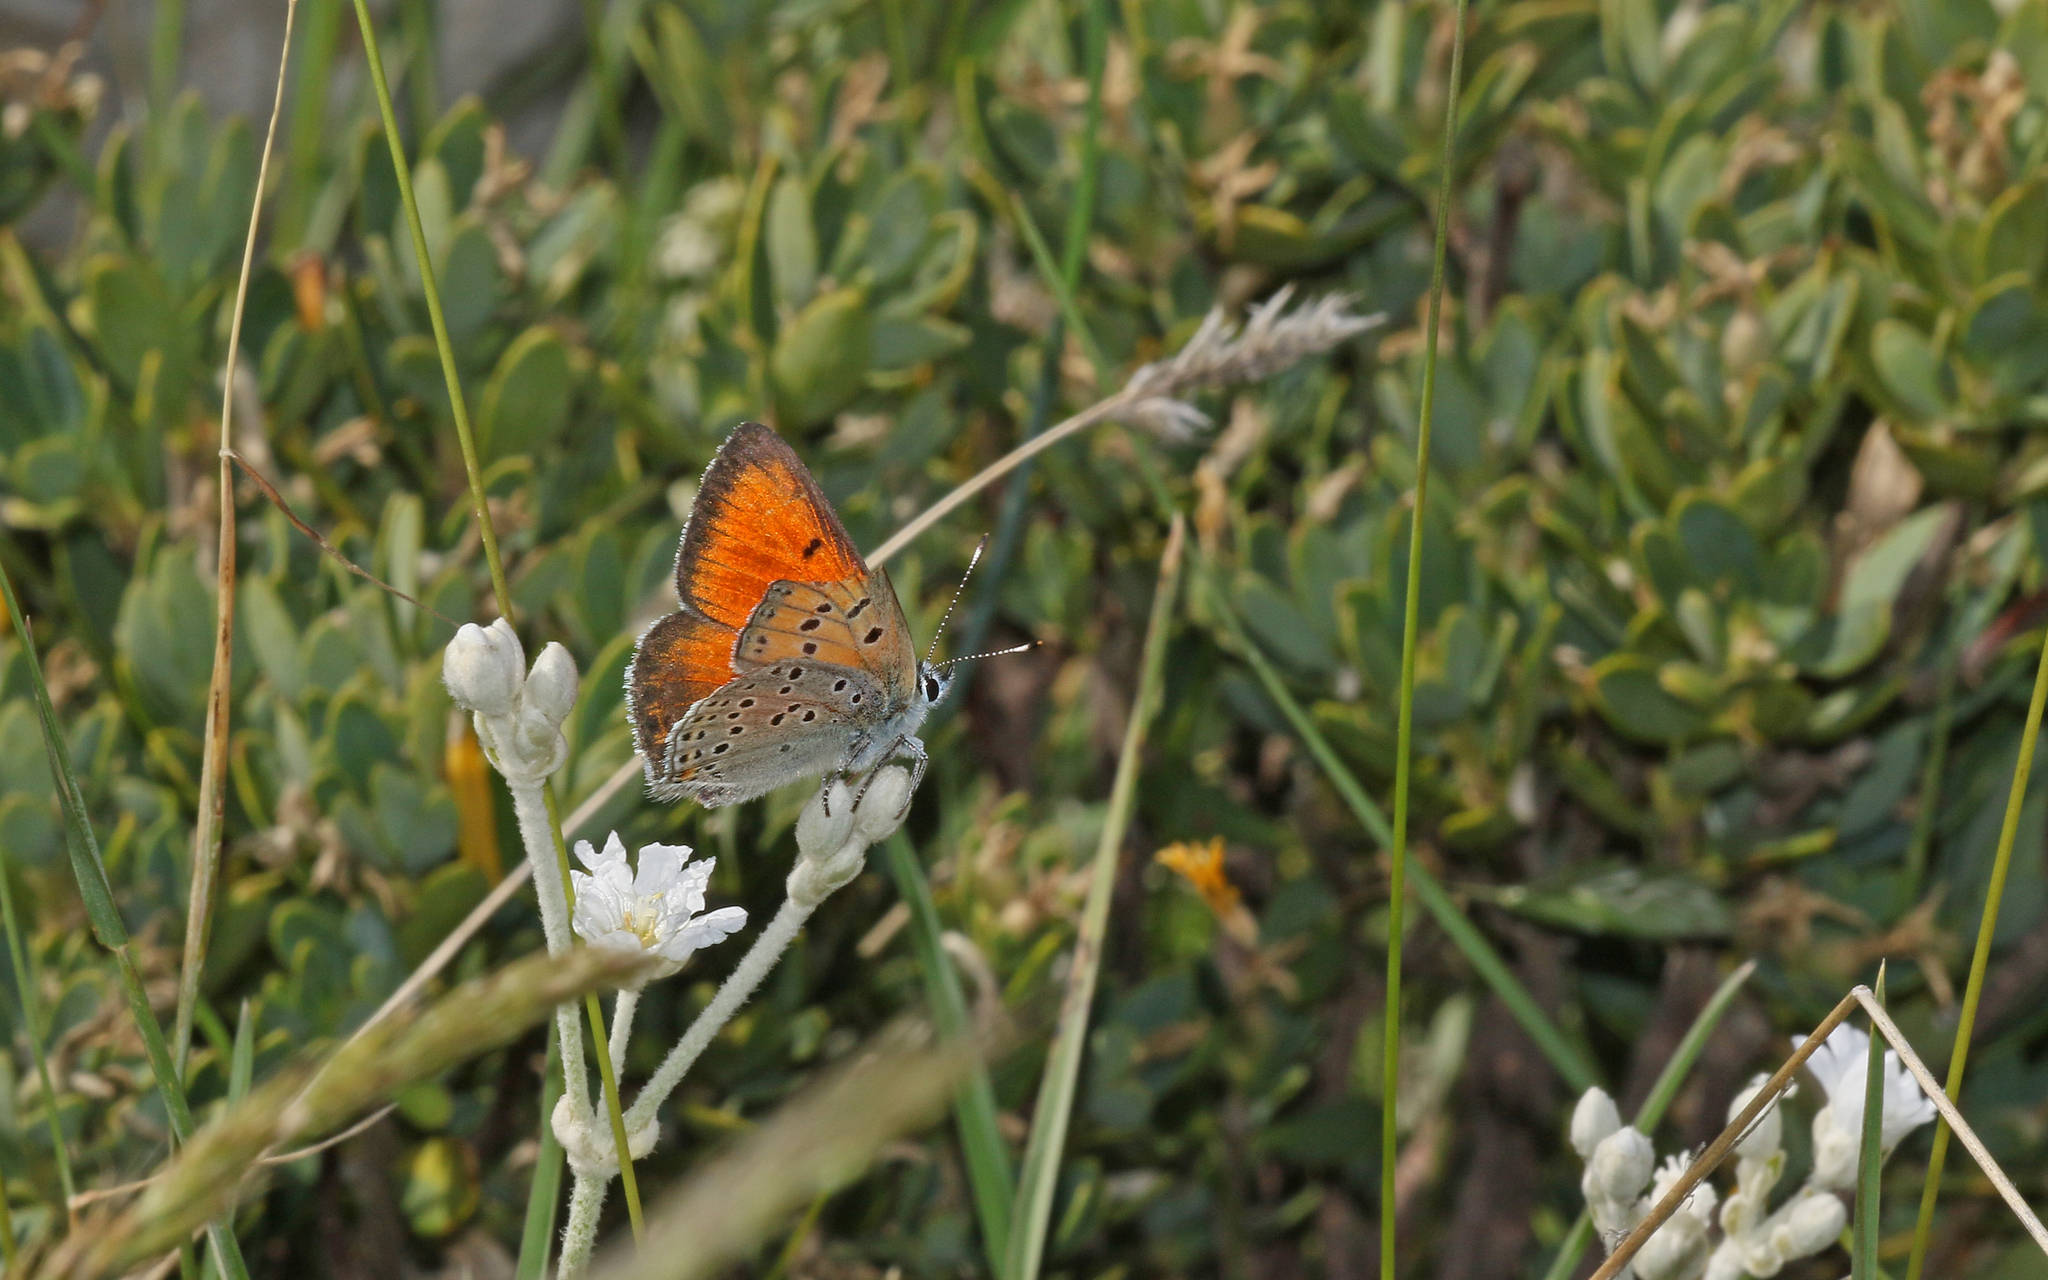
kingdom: Animalia
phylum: Arthropoda
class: Insecta
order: Lepidoptera
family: Lycaenidae
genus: Palaeochrysophanus
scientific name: Palaeochrysophanus candens
